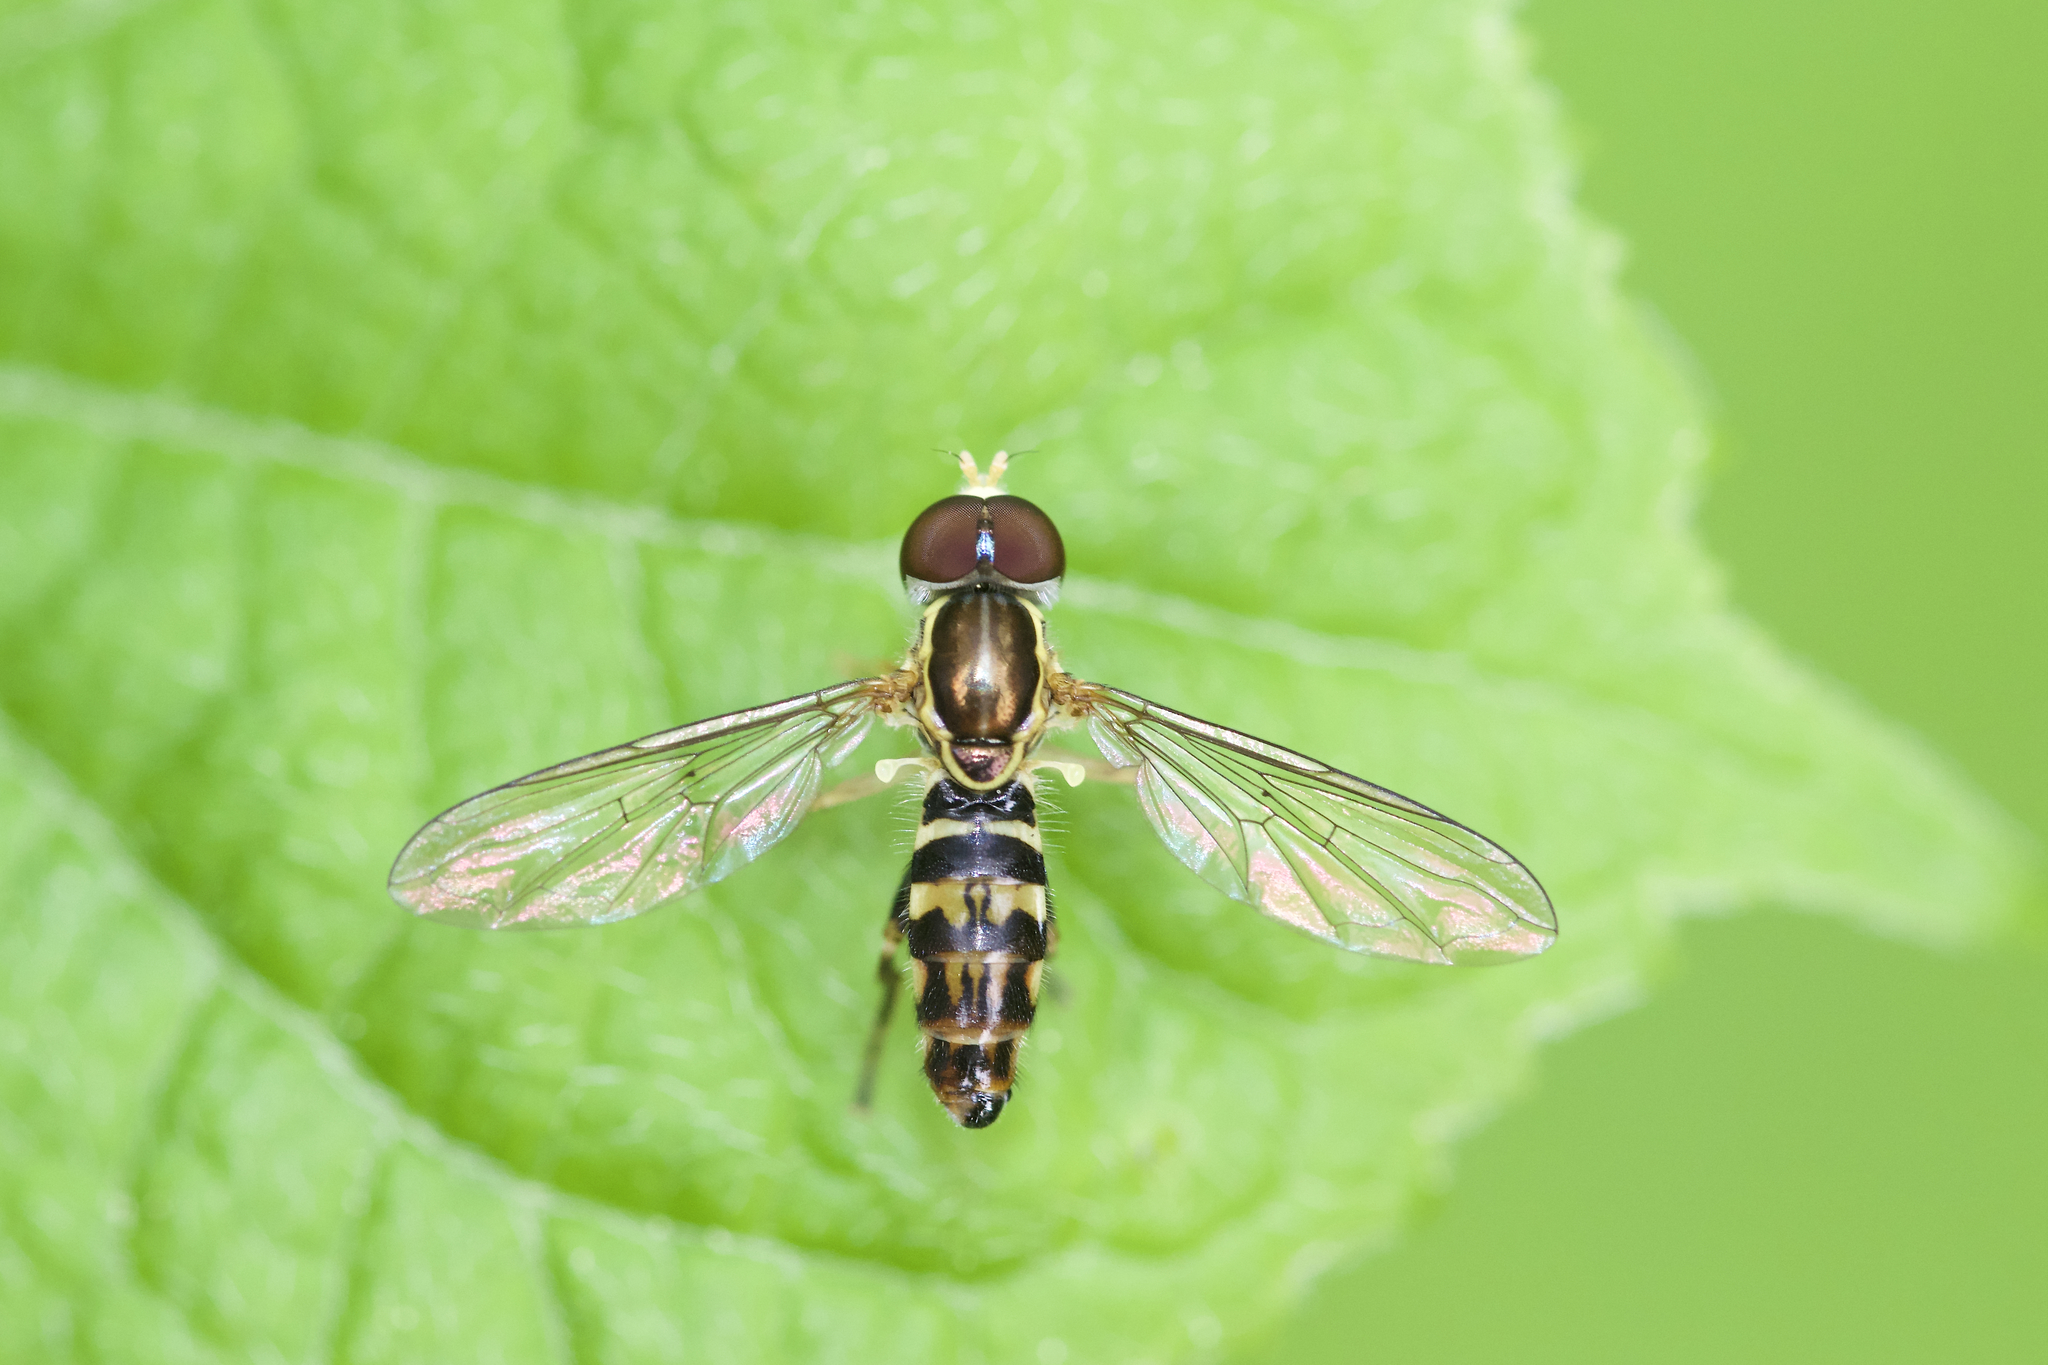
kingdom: Animalia
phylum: Arthropoda
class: Insecta
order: Diptera
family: Syrphidae
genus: Toxomerus
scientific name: Toxomerus geminatus
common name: Eastern calligrapher
